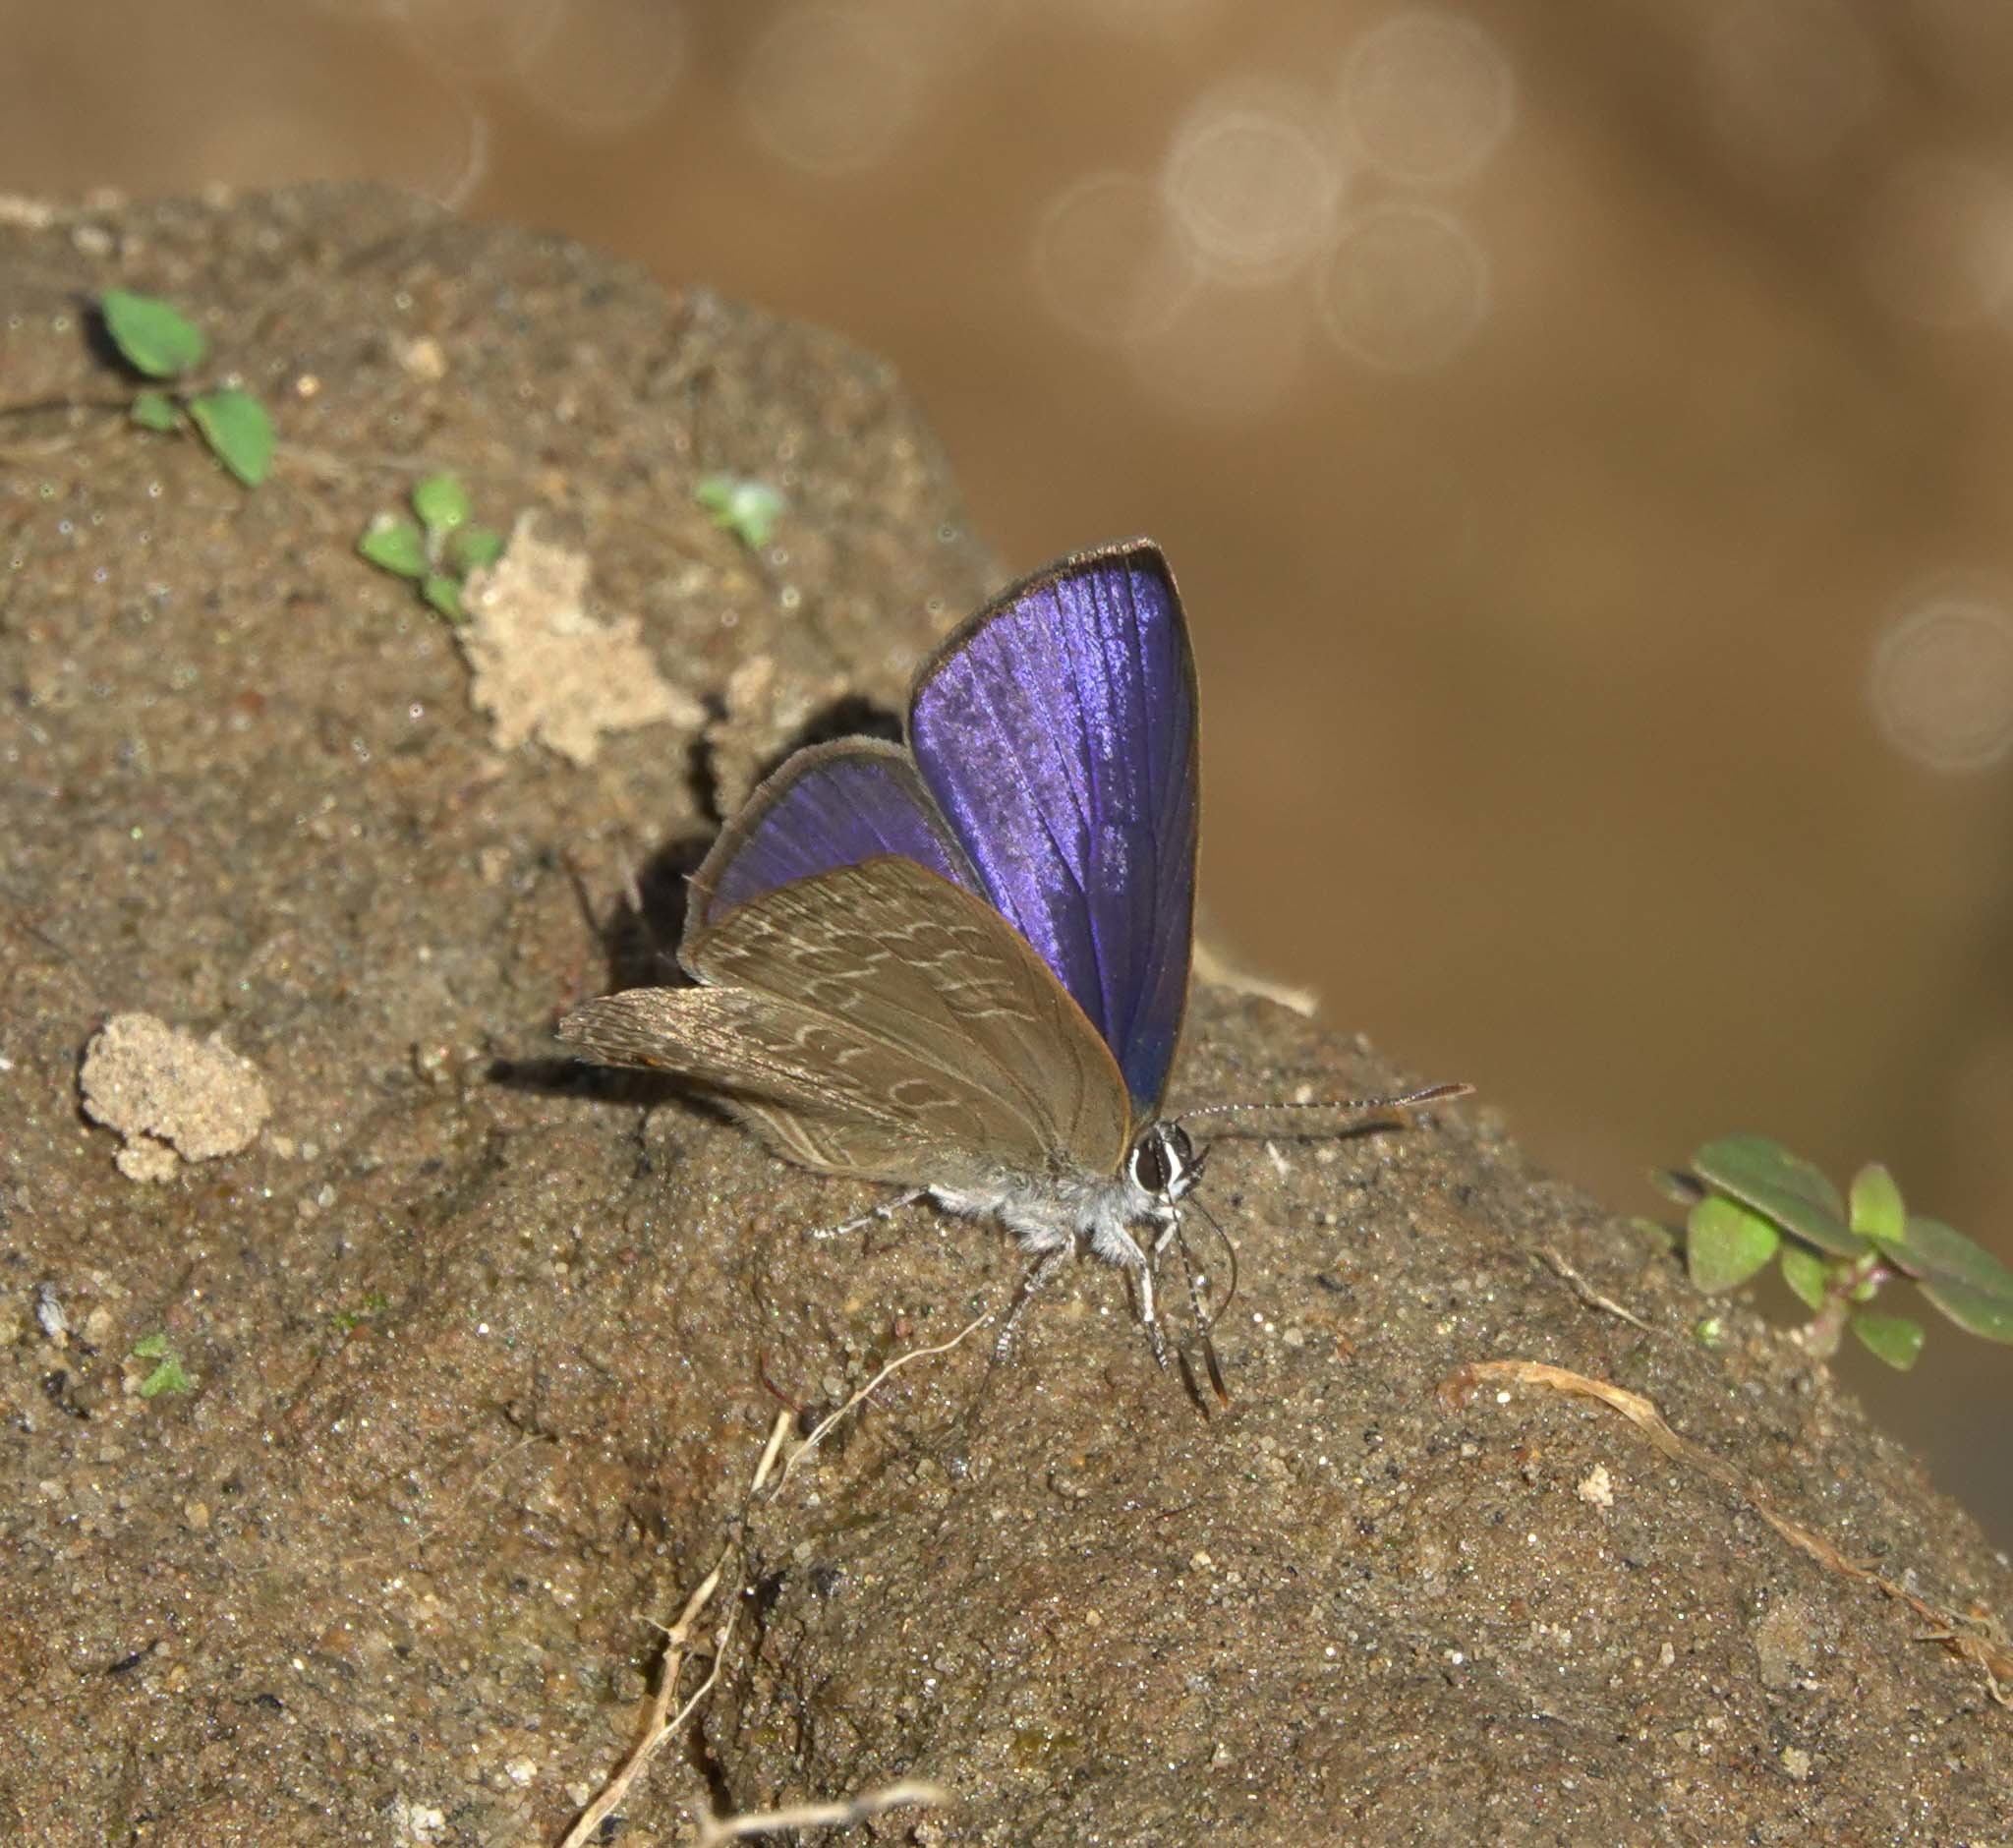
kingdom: Animalia
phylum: Arthropoda
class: Insecta
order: Lepidoptera
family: Lycaenidae
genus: Anthene
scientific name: Anthene emolus
